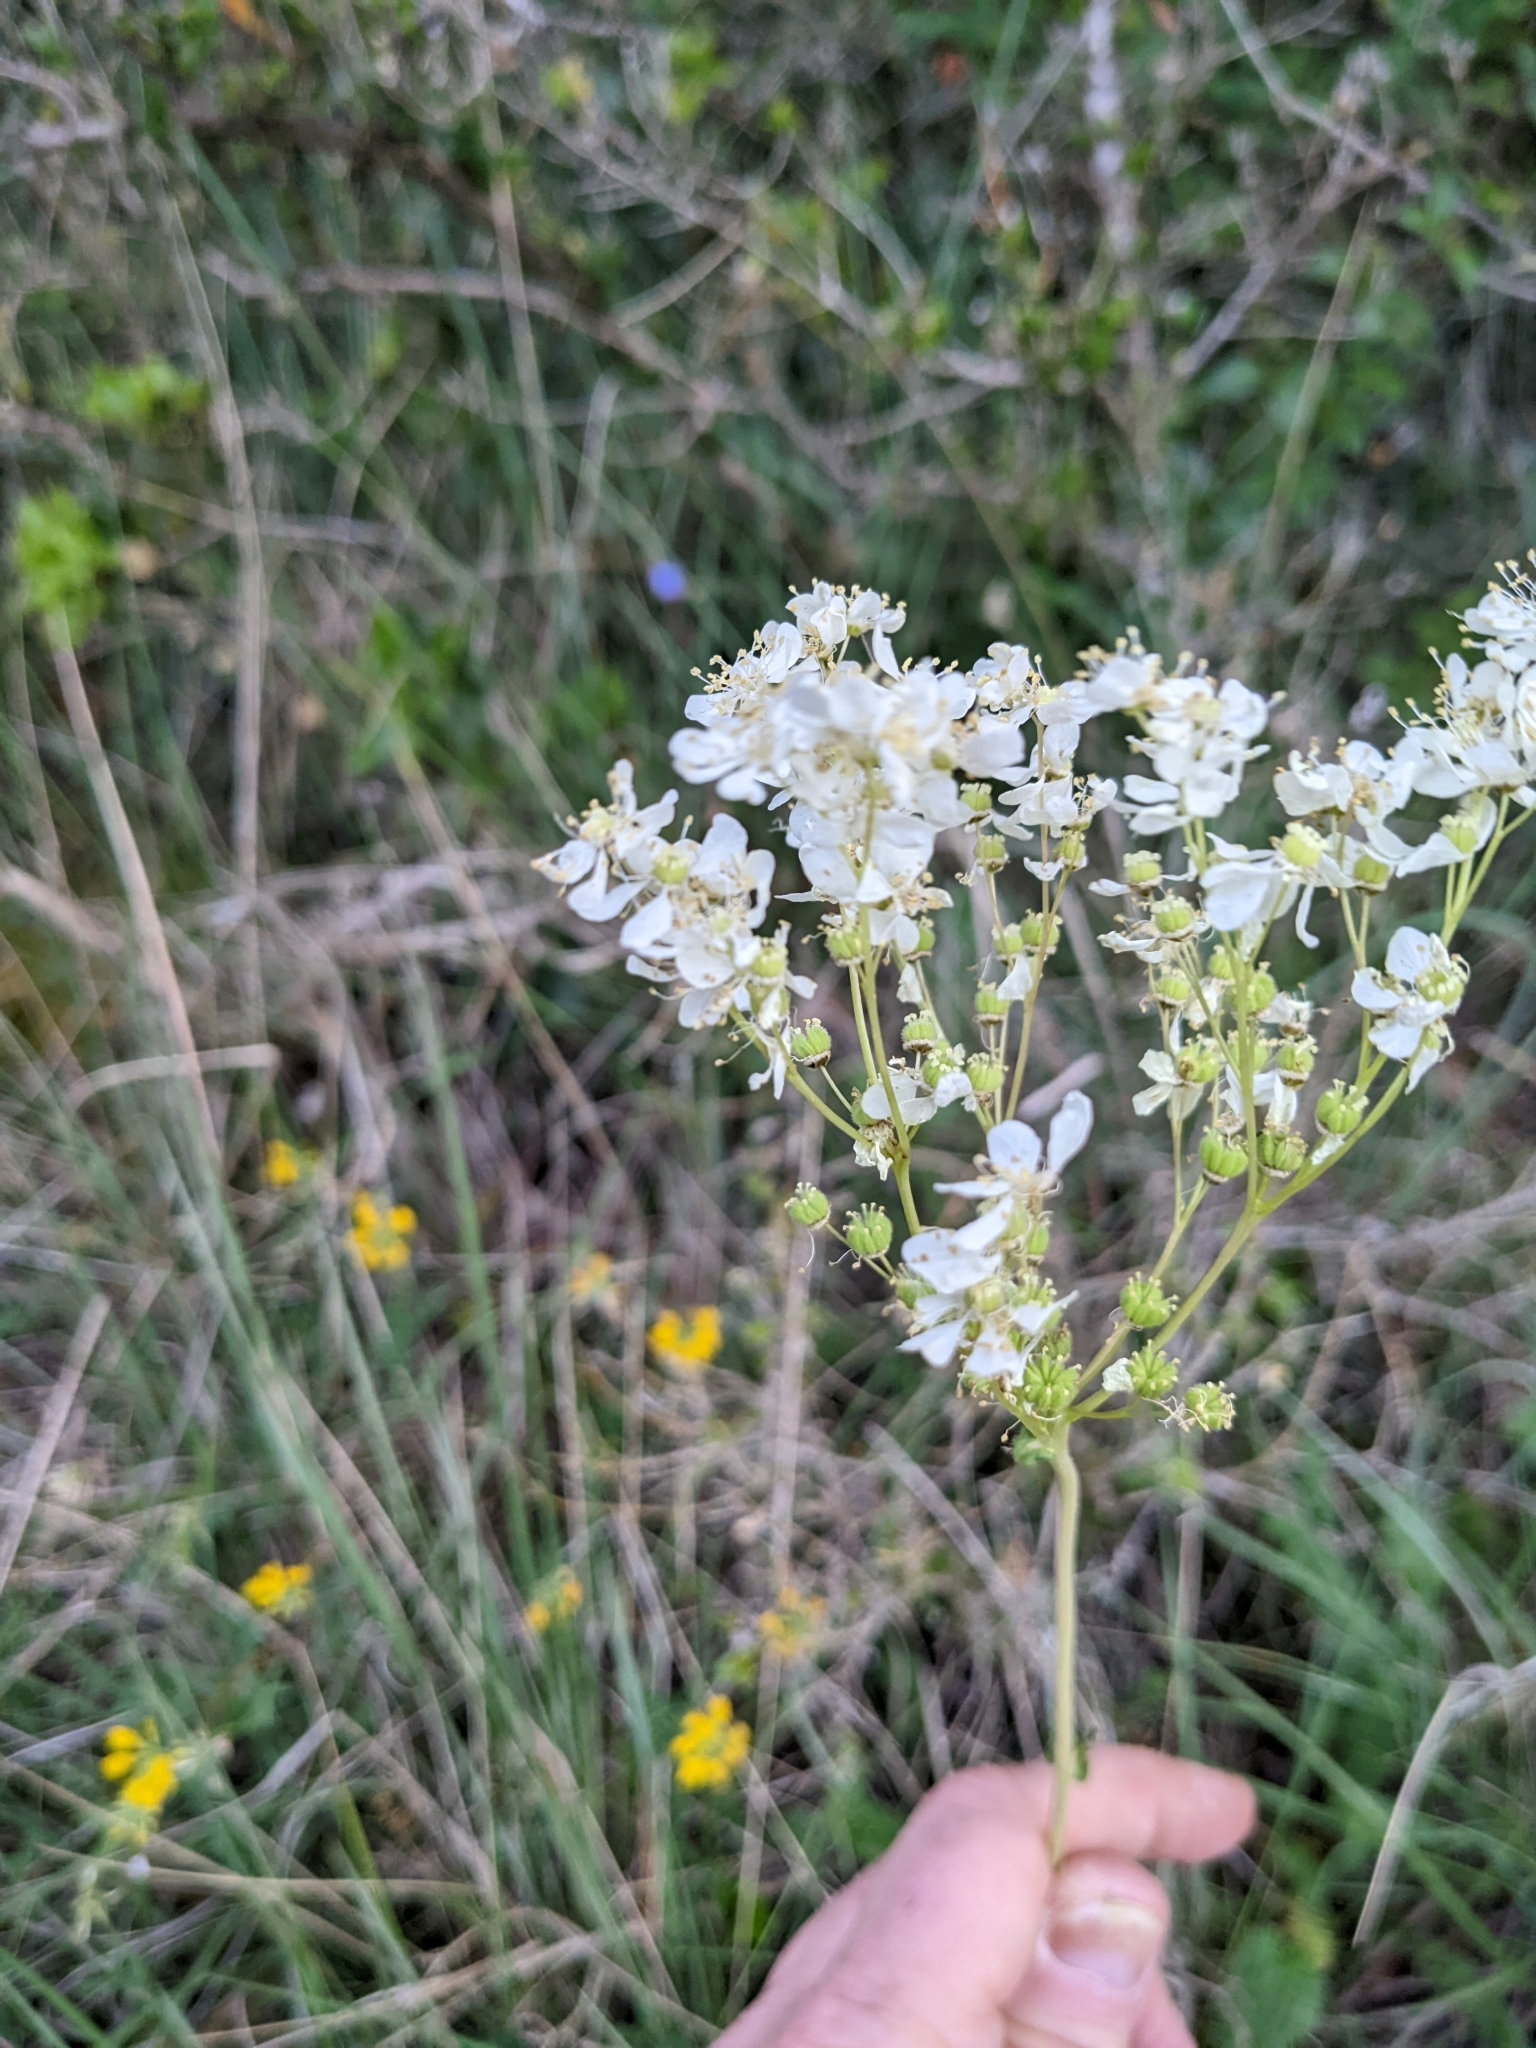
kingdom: Plantae
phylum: Tracheophyta
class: Magnoliopsida
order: Rosales
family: Rosaceae
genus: Filipendula
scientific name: Filipendula vulgaris
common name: Dropwort
